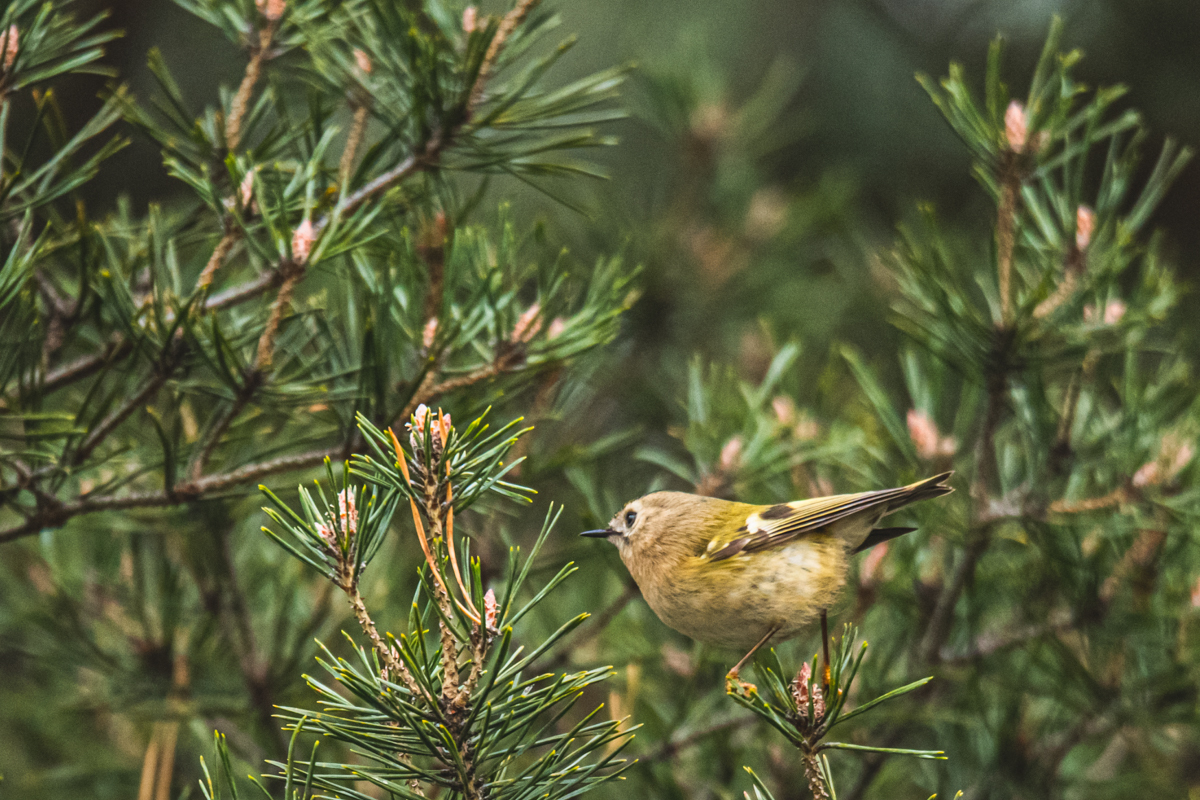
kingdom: Animalia
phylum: Chordata
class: Aves
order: Passeriformes
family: Regulidae
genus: Regulus
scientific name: Regulus regulus
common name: Goldcrest
